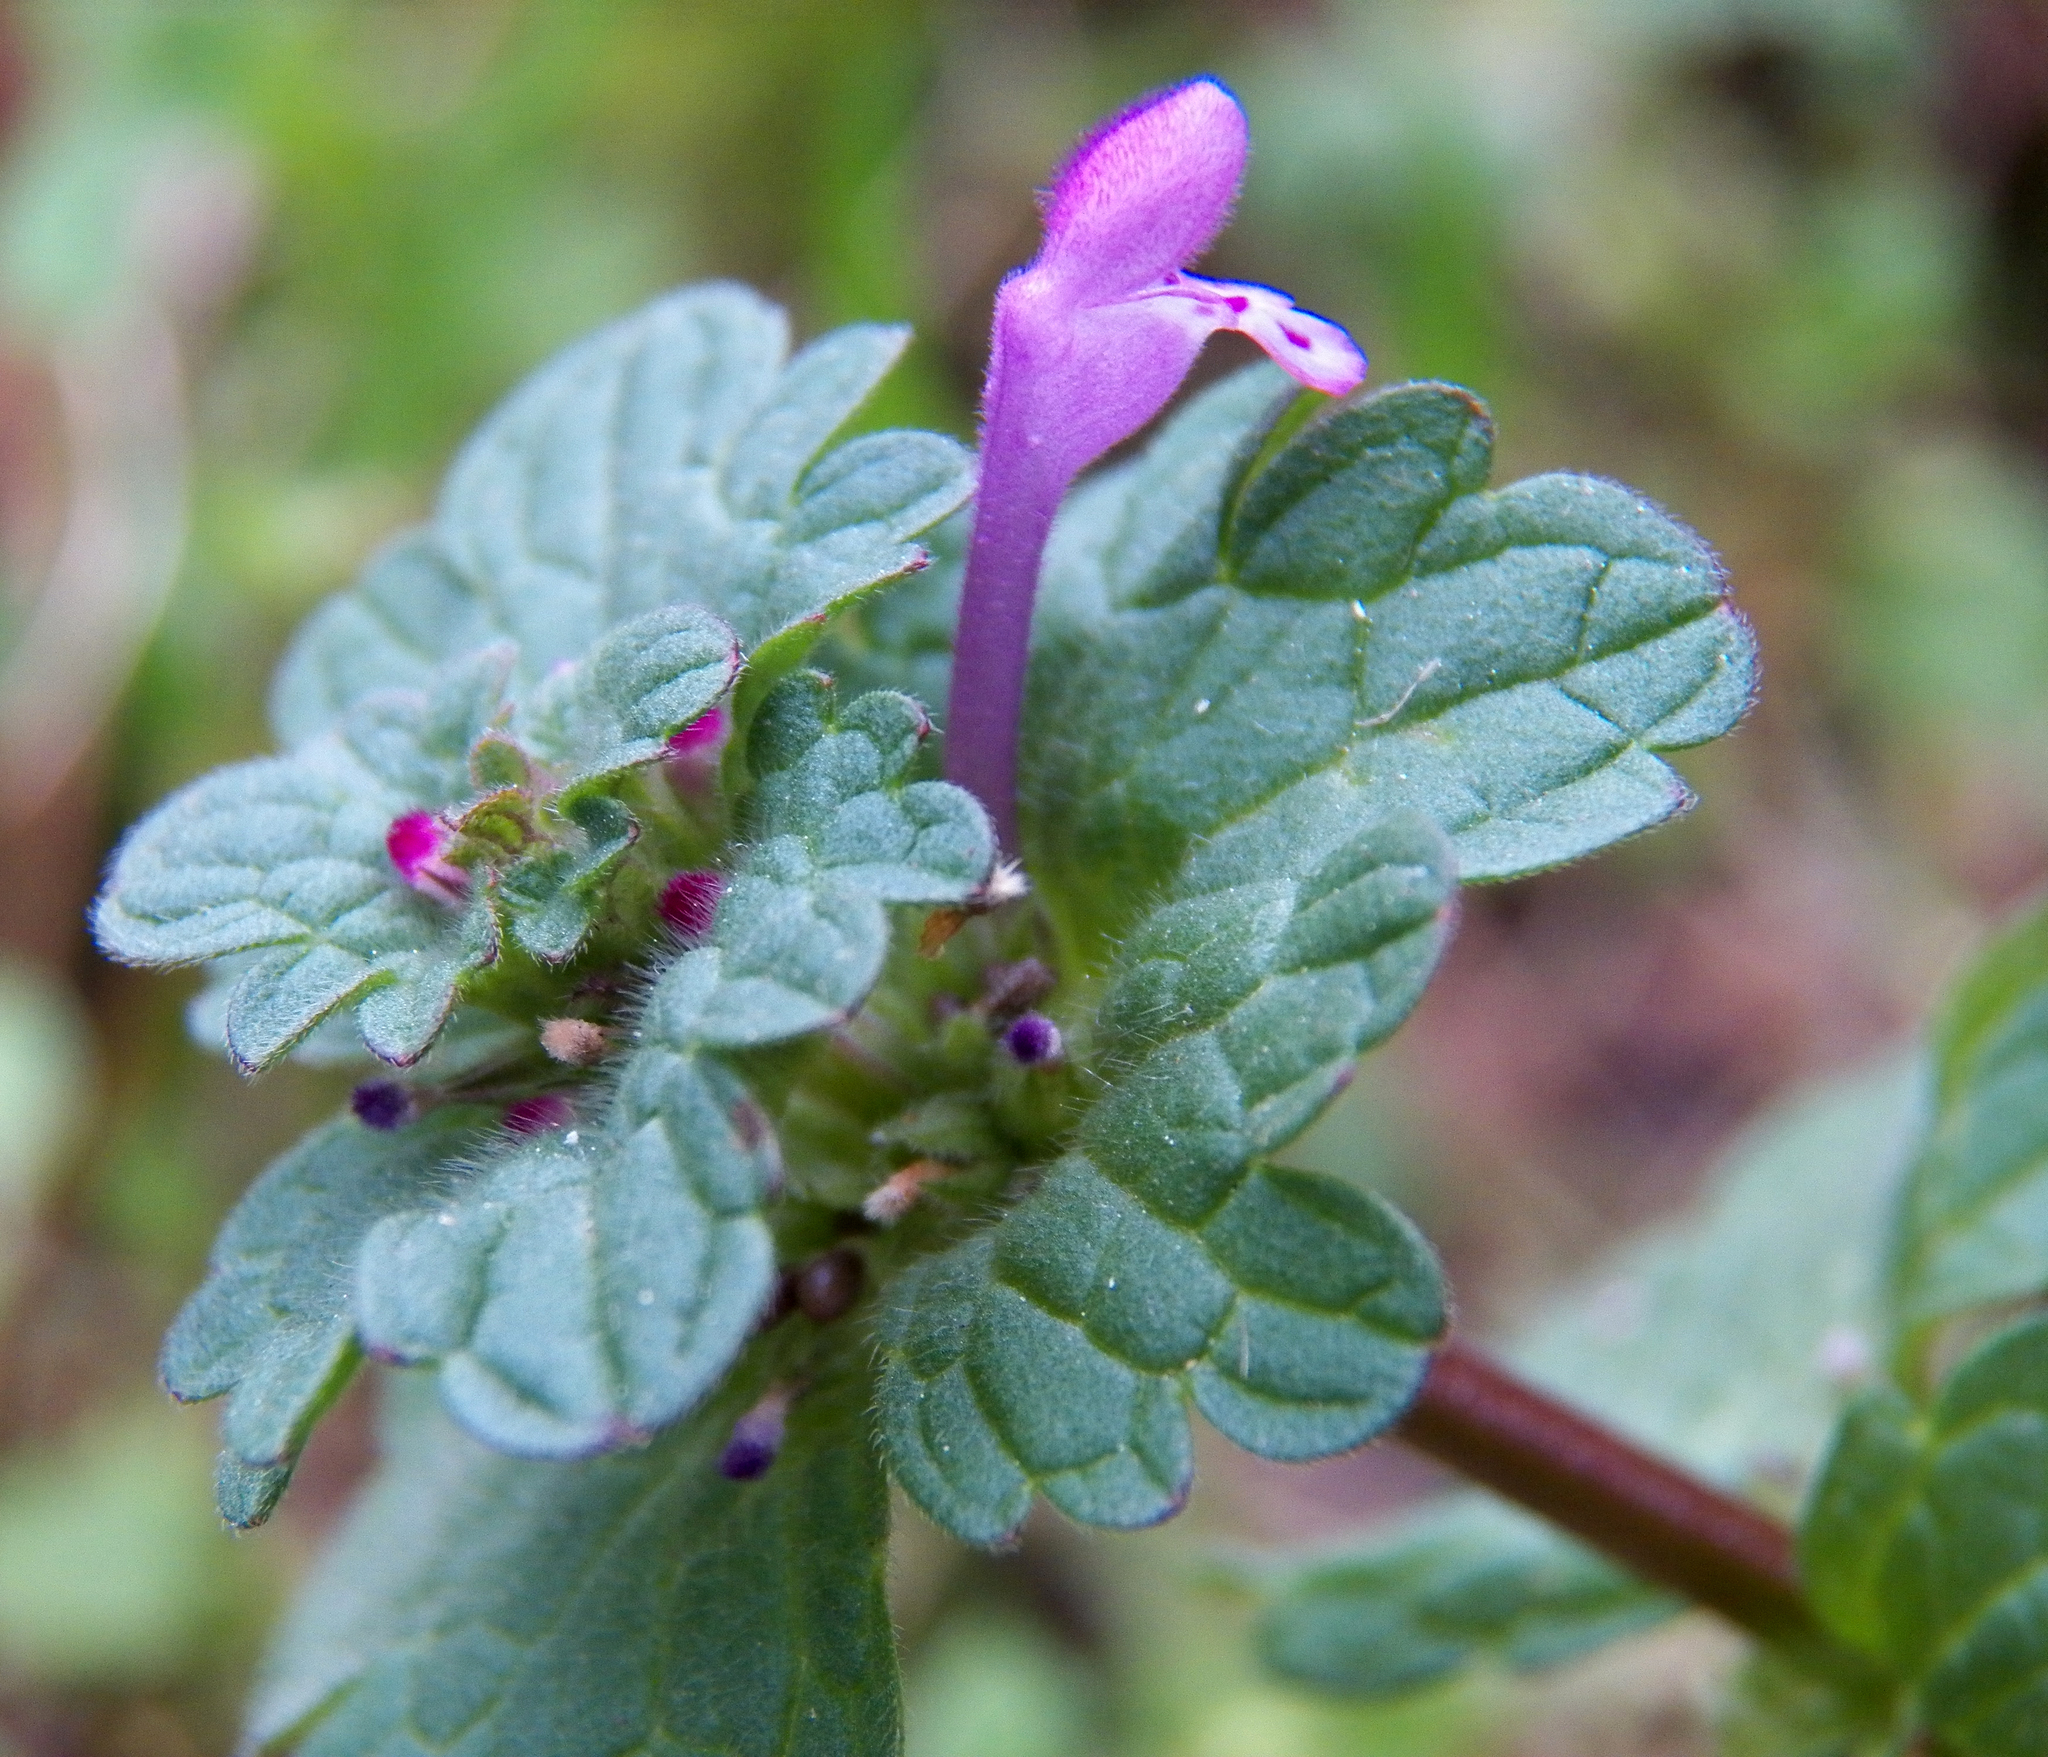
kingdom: Plantae
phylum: Tracheophyta
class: Magnoliopsida
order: Lamiales
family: Lamiaceae
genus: Lamium
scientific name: Lamium amplexicaule
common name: Henbit dead-nettle
